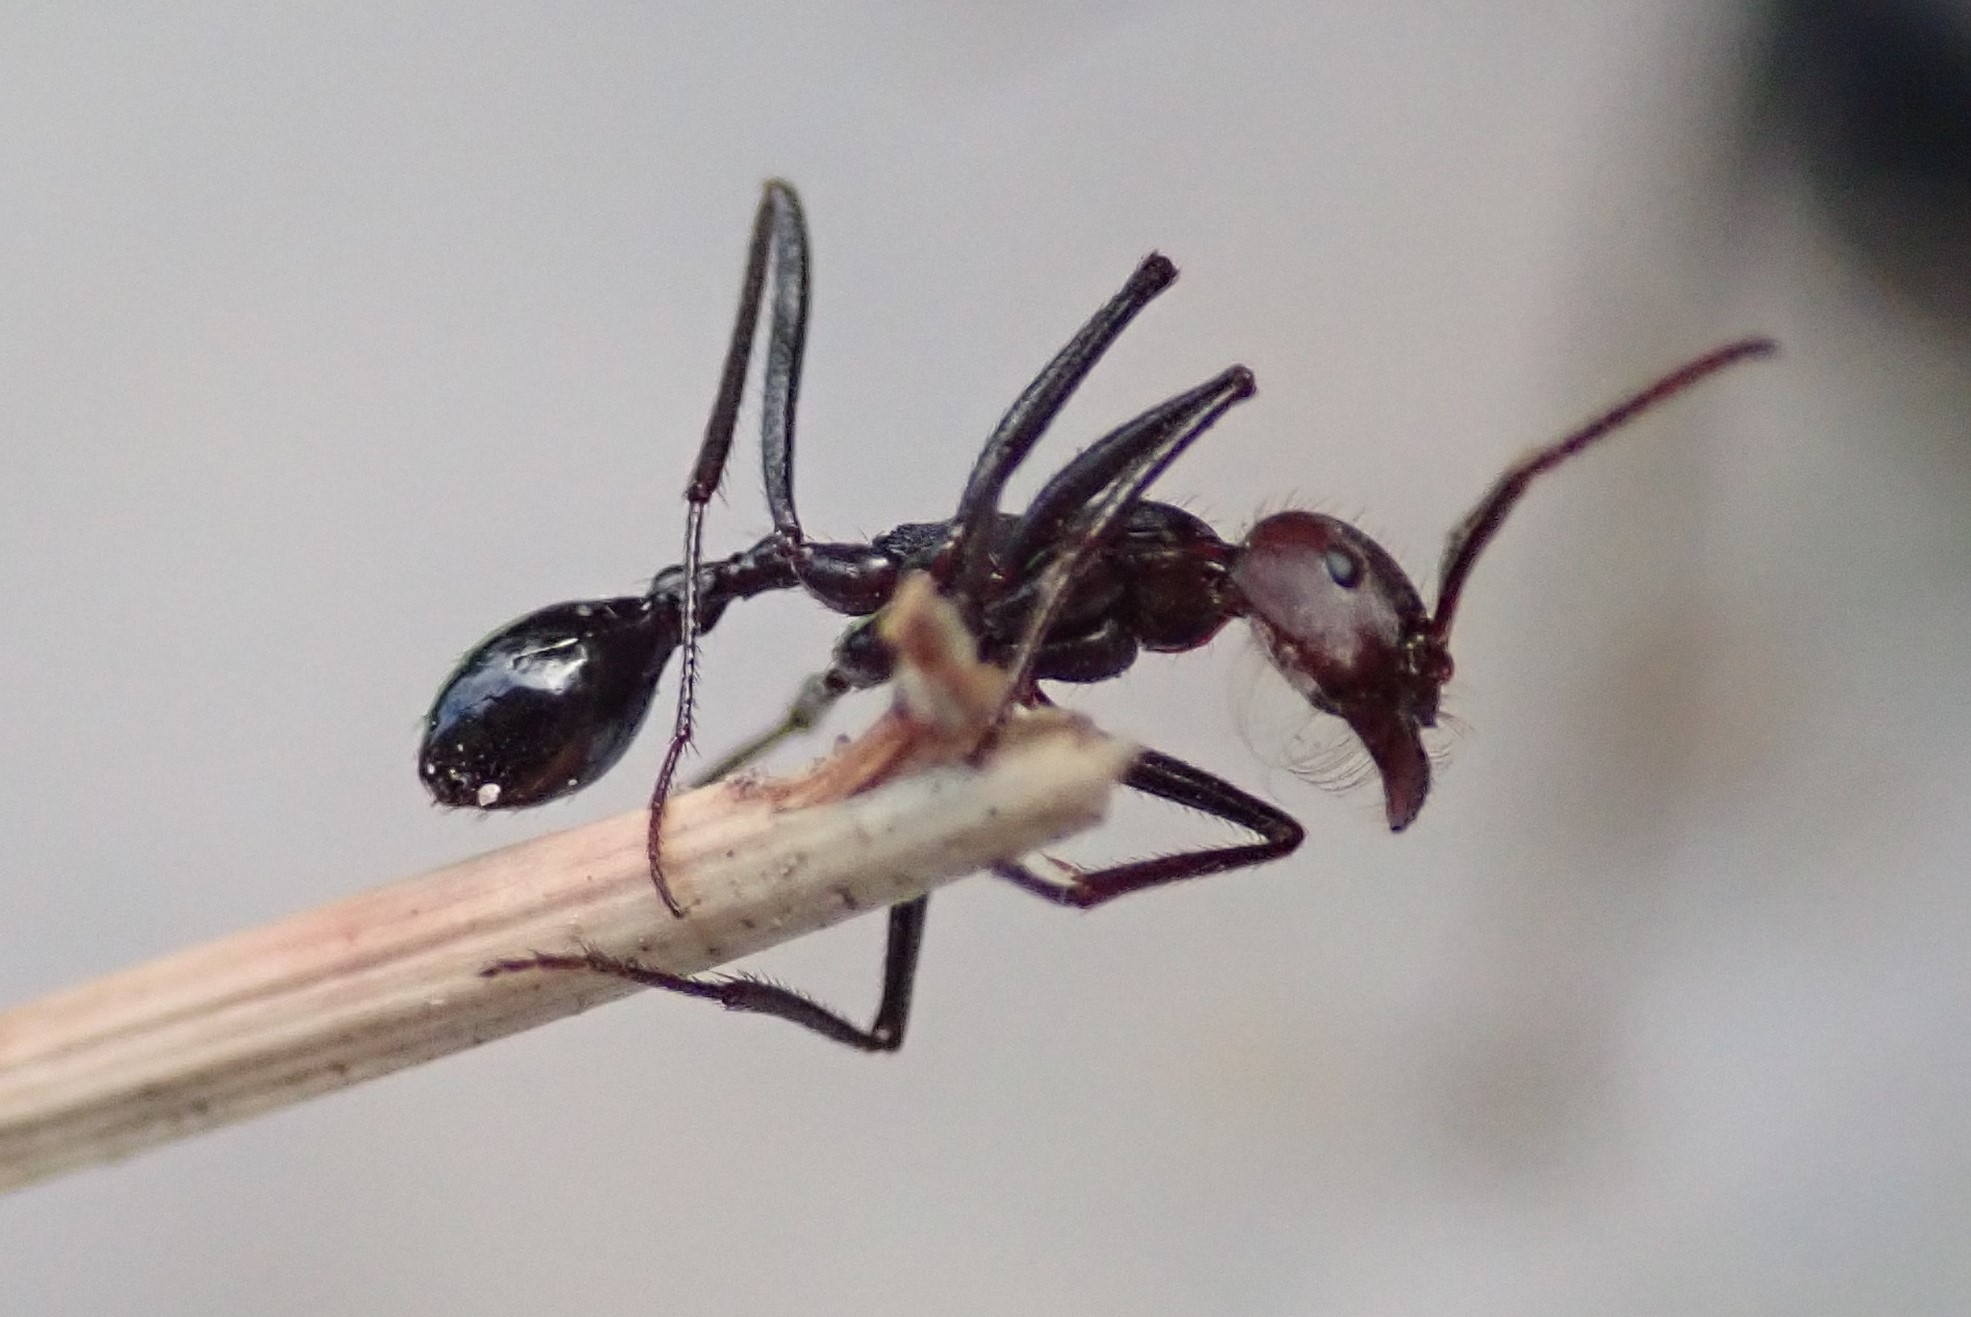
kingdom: Animalia
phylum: Arthropoda
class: Insecta
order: Hymenoptera
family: Formicidae
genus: Ocymyrmex
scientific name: Ocymyrmex velox
